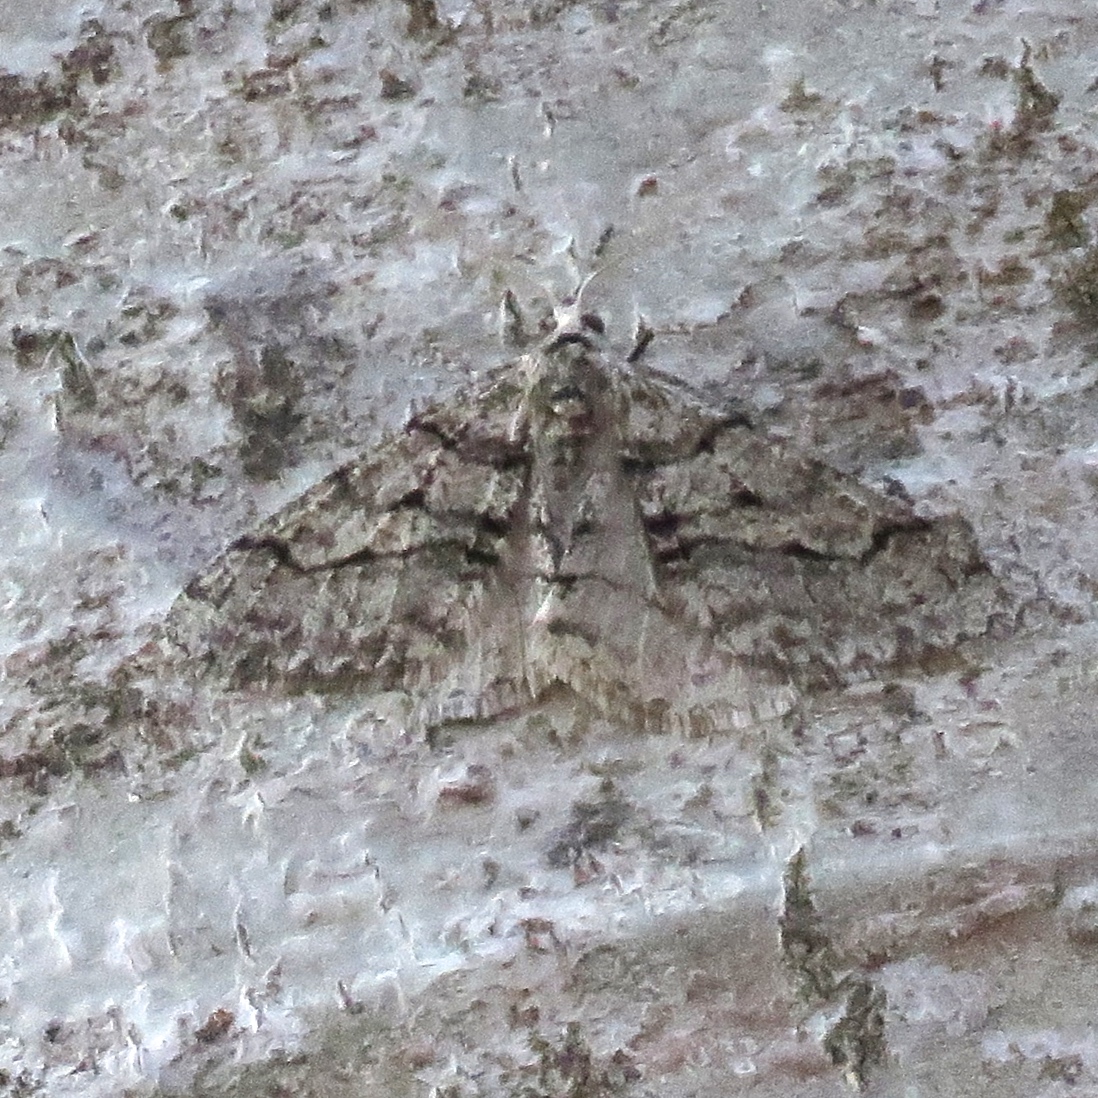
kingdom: Animalia
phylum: Arthropoda
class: Insecta
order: Lepidoptera
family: Geometridae
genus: Phigalia
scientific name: Phigalia titea
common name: Spiny looper
